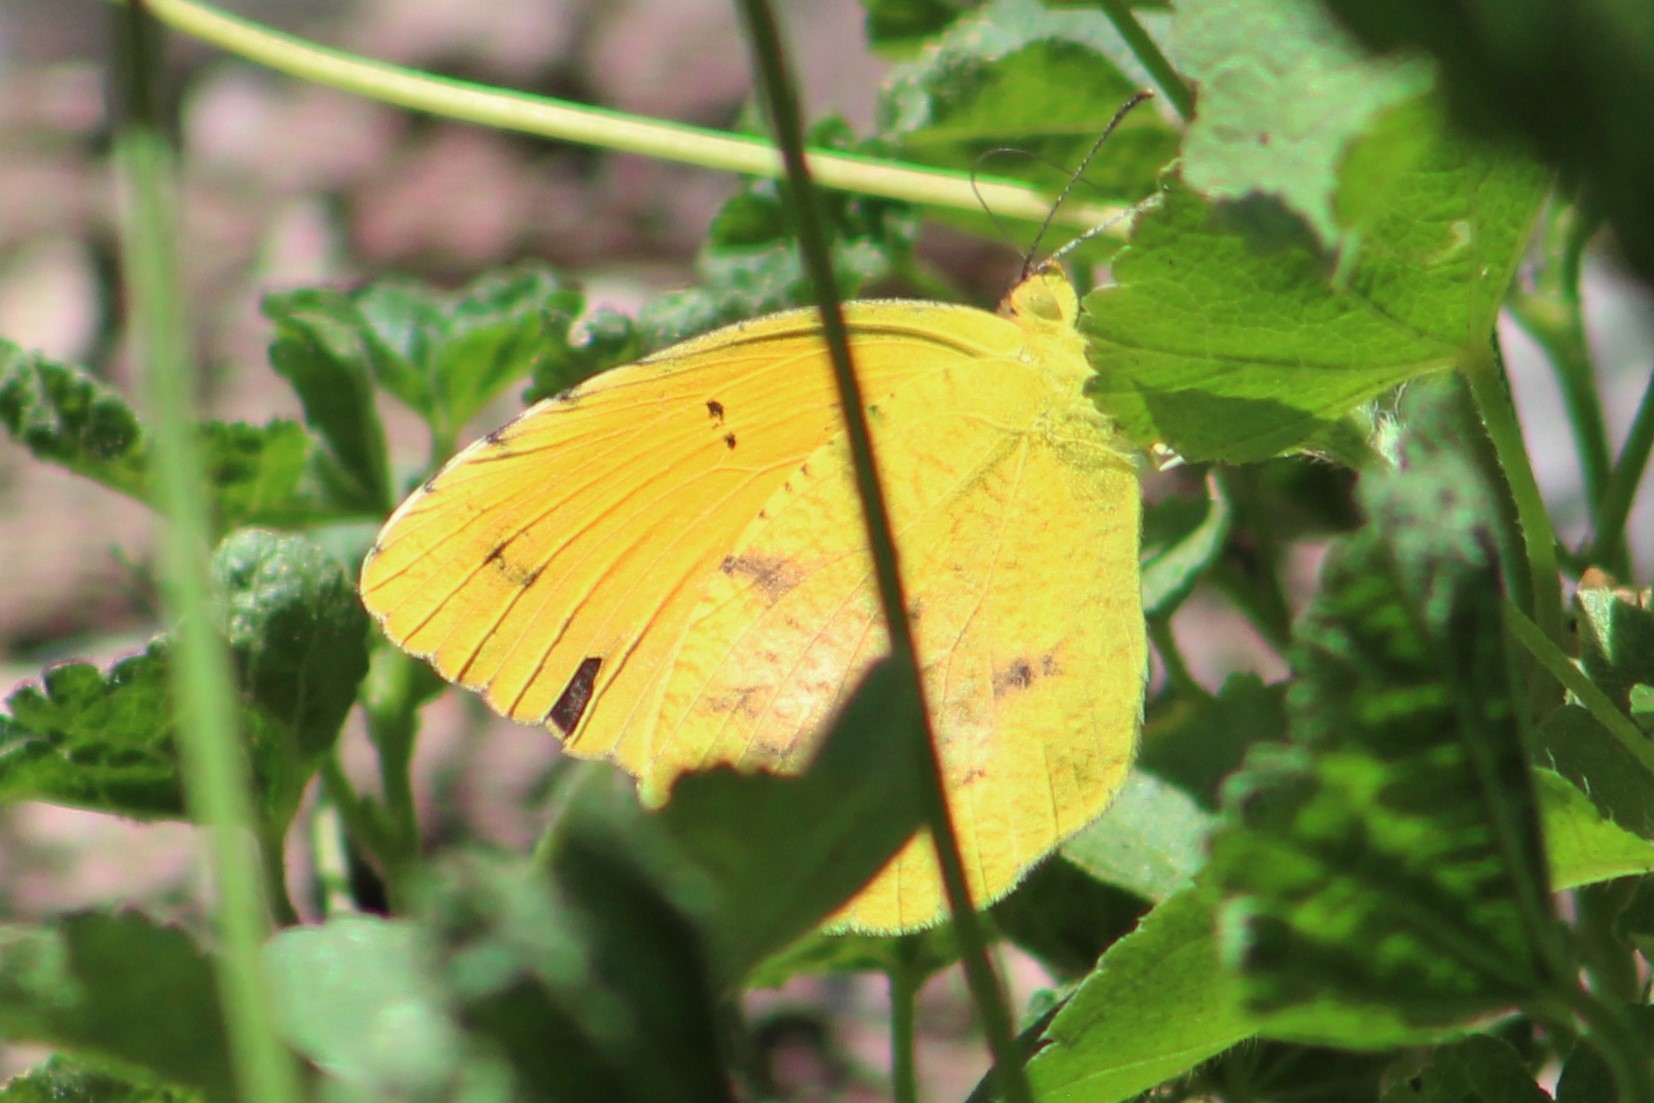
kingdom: Animalia
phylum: Arthropoda
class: Insecta
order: Lepidoptera
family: Pieridae
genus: Abaeis
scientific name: Abaeis nicippe
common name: Sleepy orange
